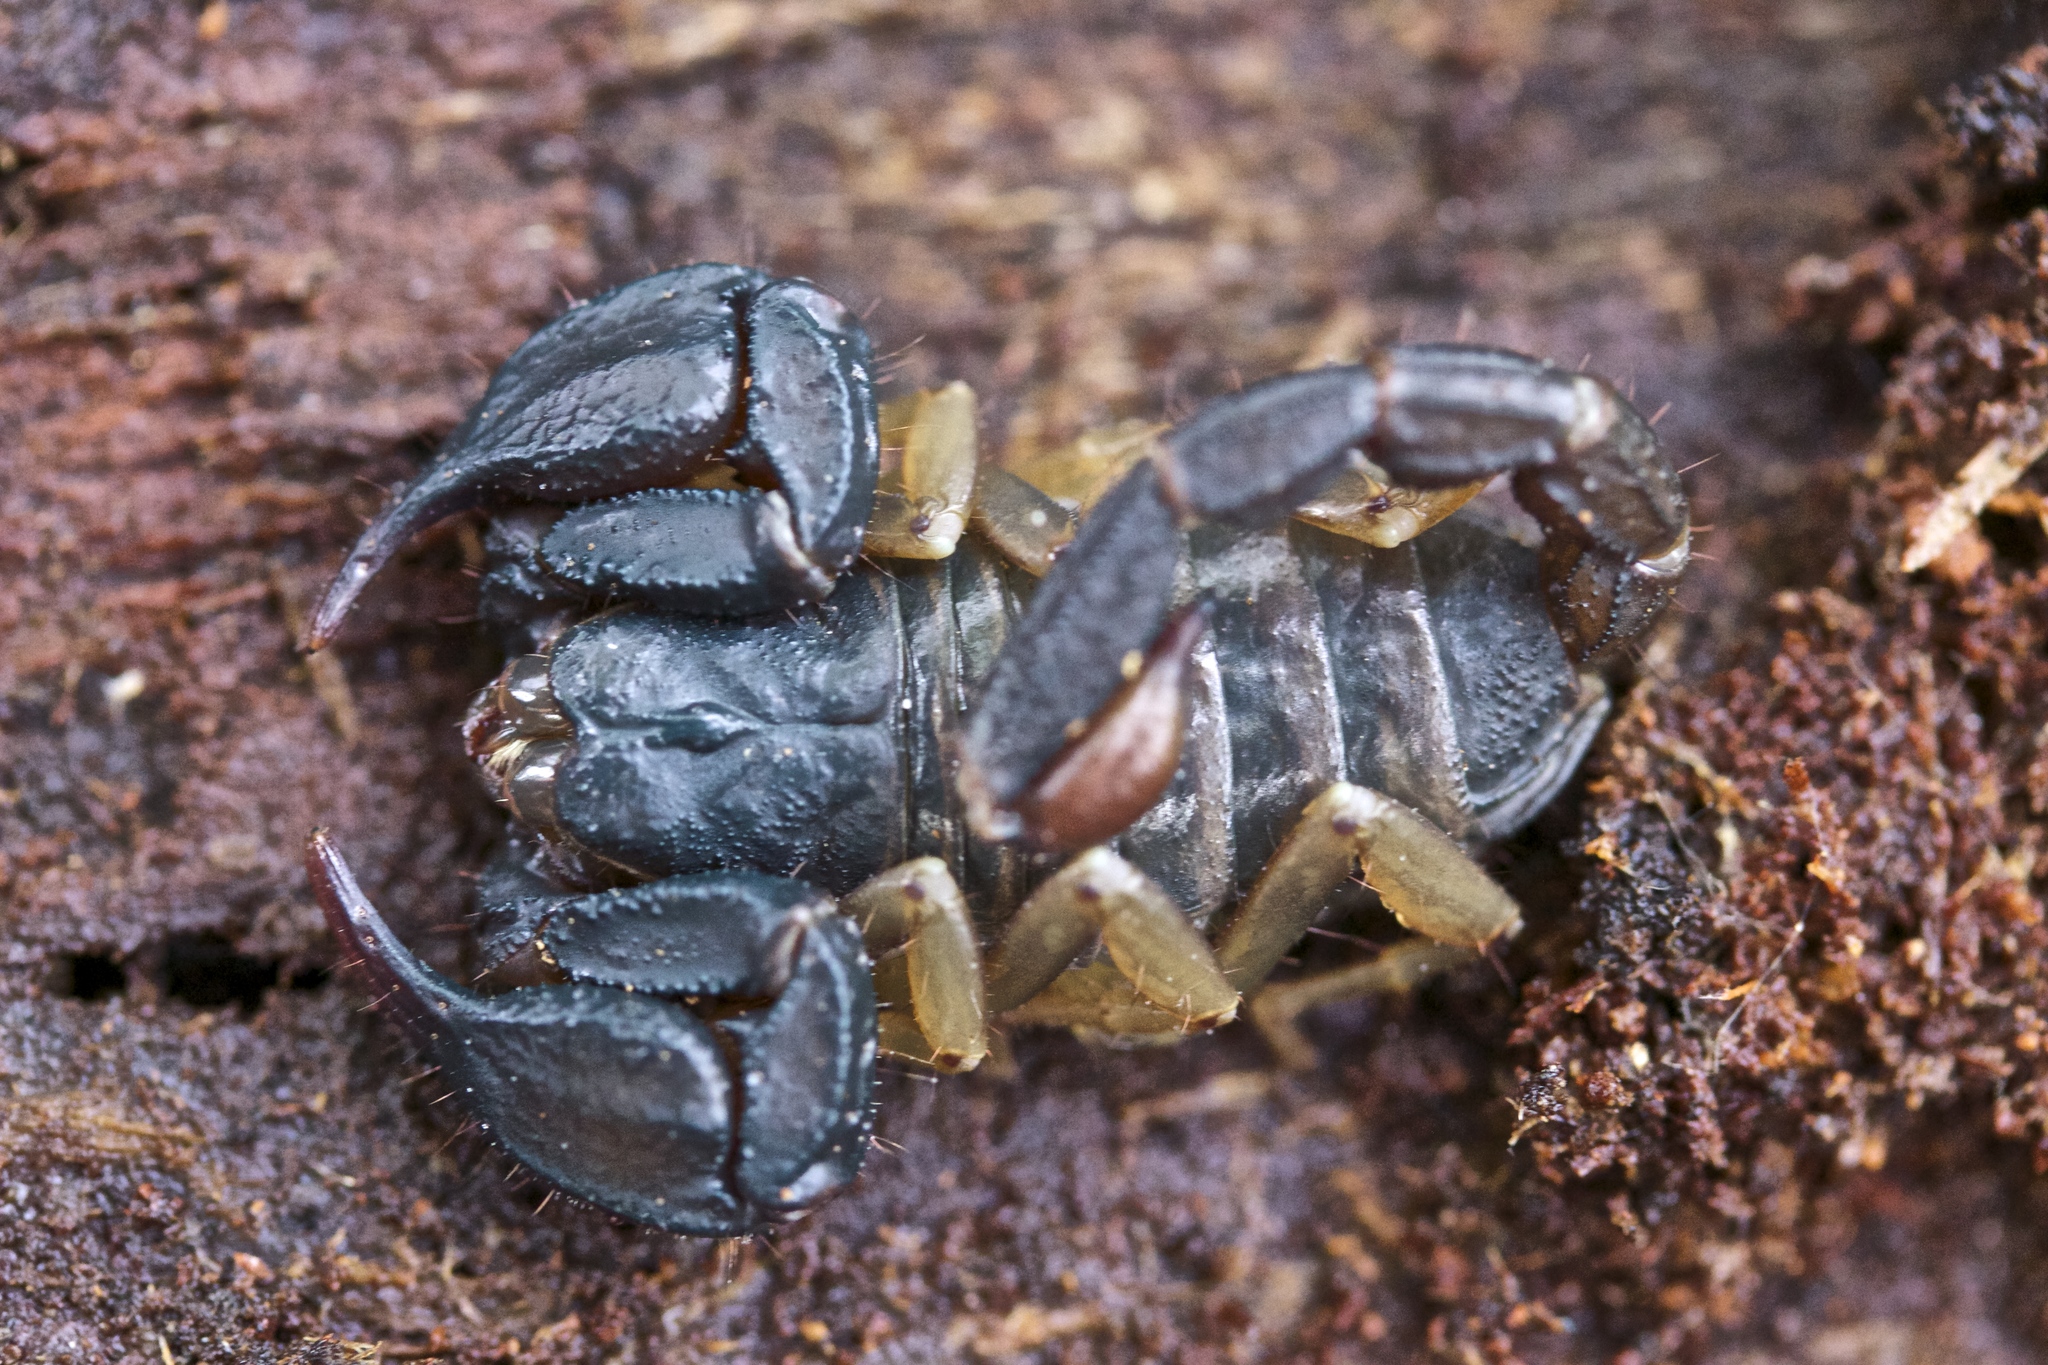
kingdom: Animalia
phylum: Arthropoda
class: Arachnida
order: Scorpiones
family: Chactidae
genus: Uroctonus
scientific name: Uroctonus mordax
